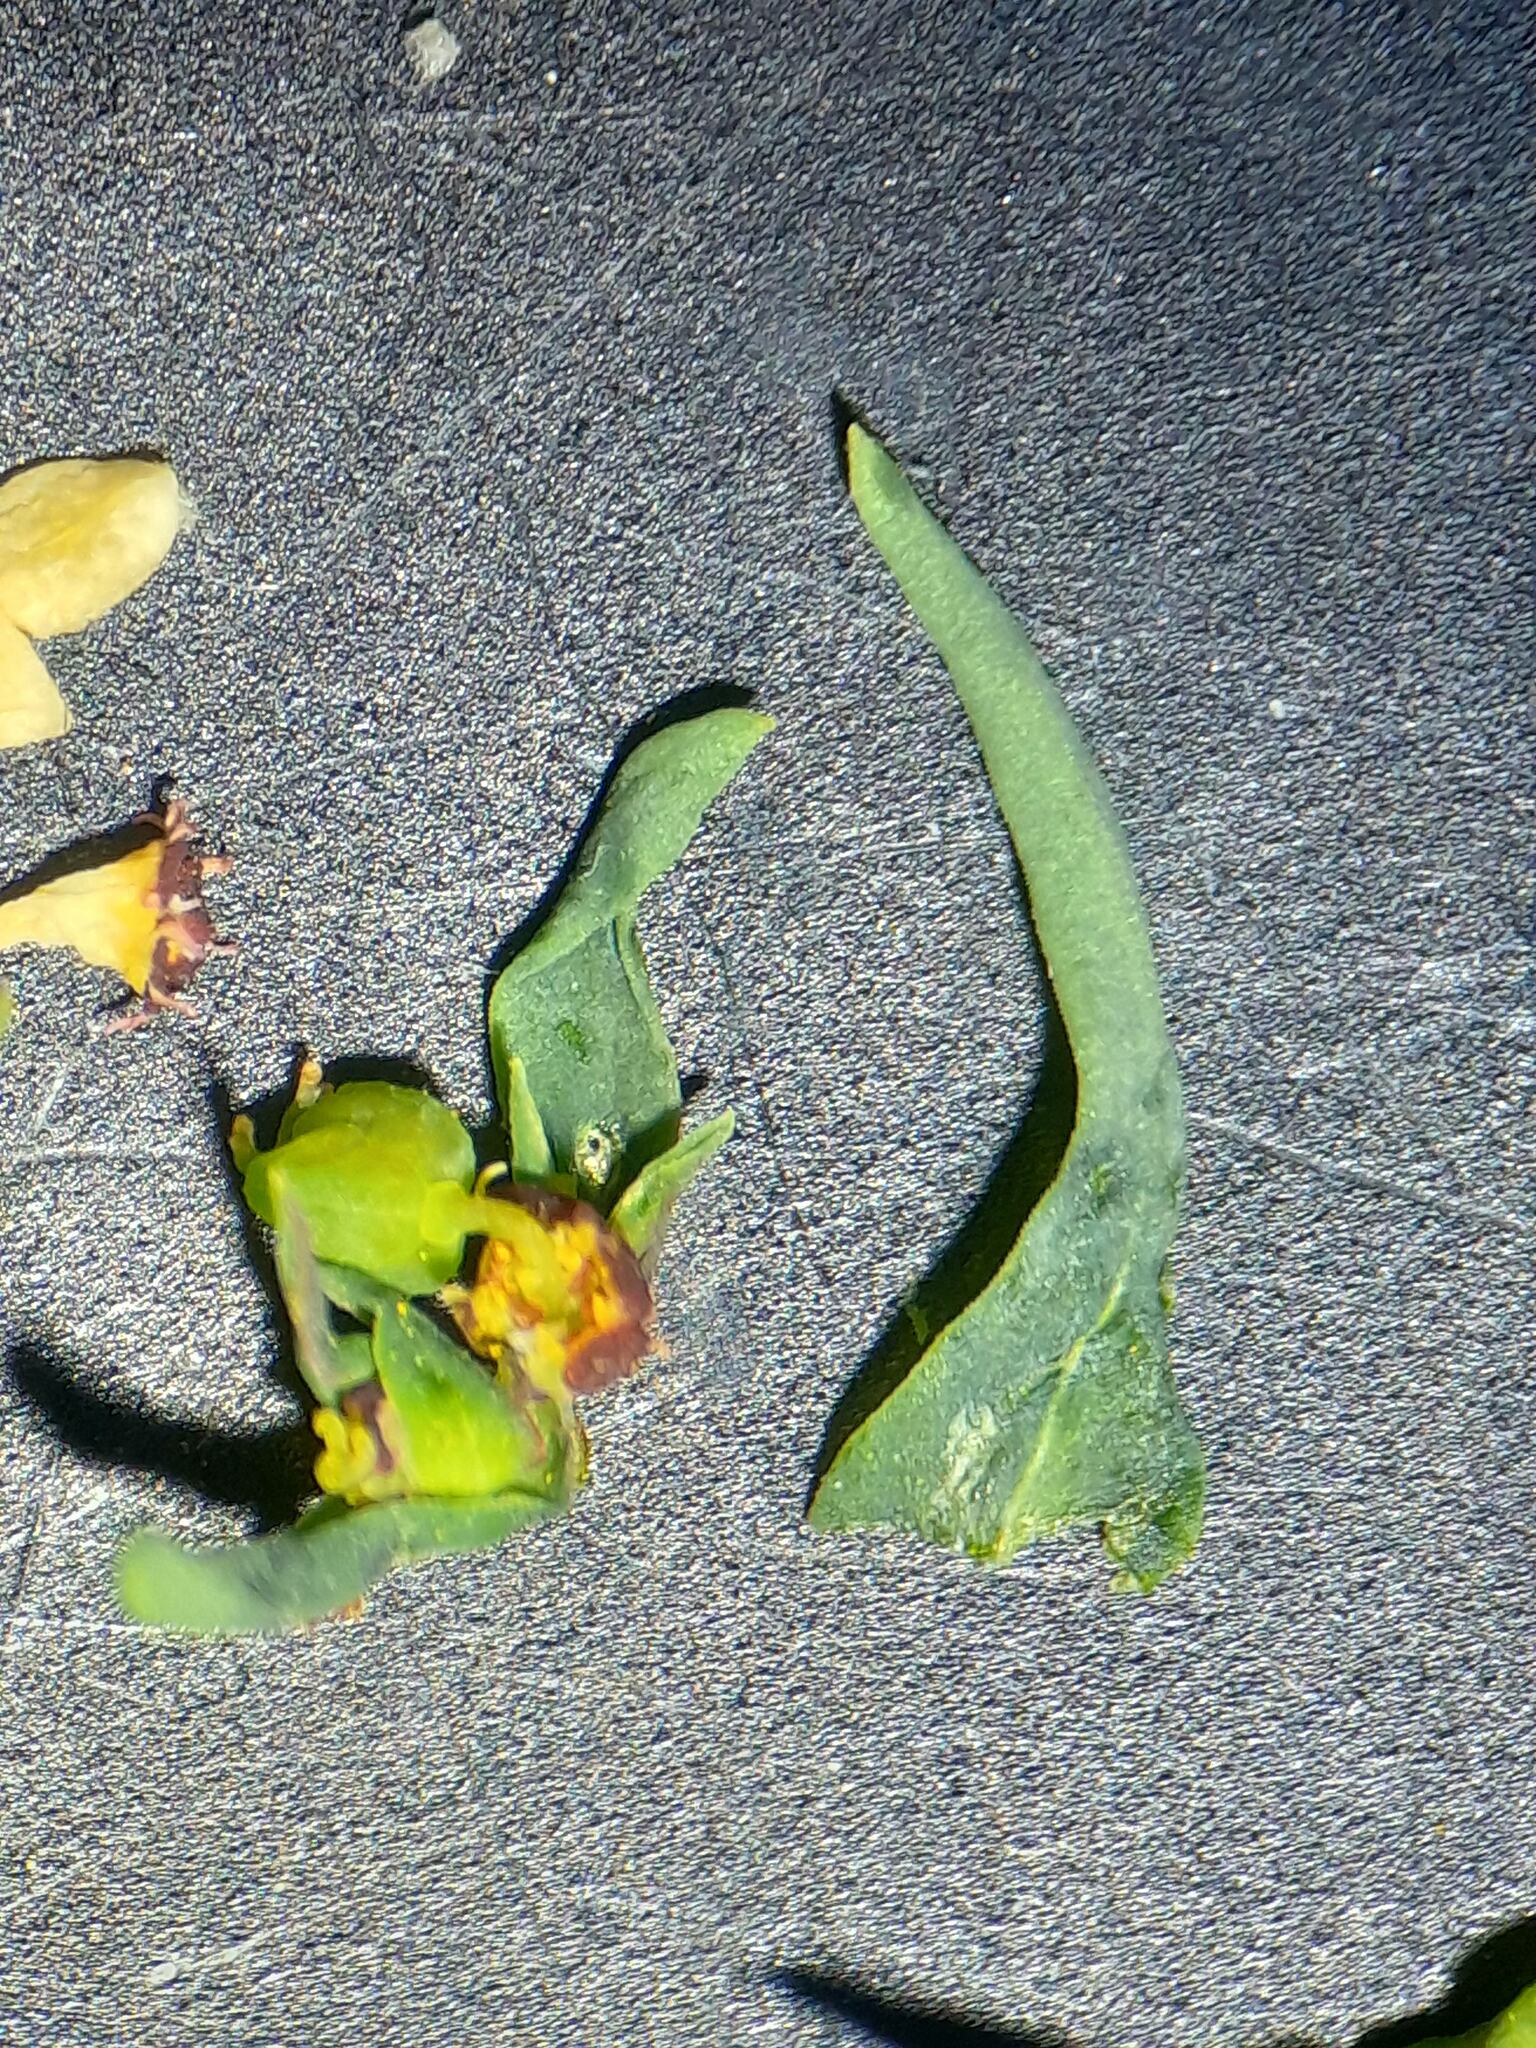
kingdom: Plantae
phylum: Tracheophyta
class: Magnoliopsida
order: Malpighiales
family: Euphorbiaceae
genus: Euphorbia
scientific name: Euphorbia exigua
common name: Dwarf spurge
